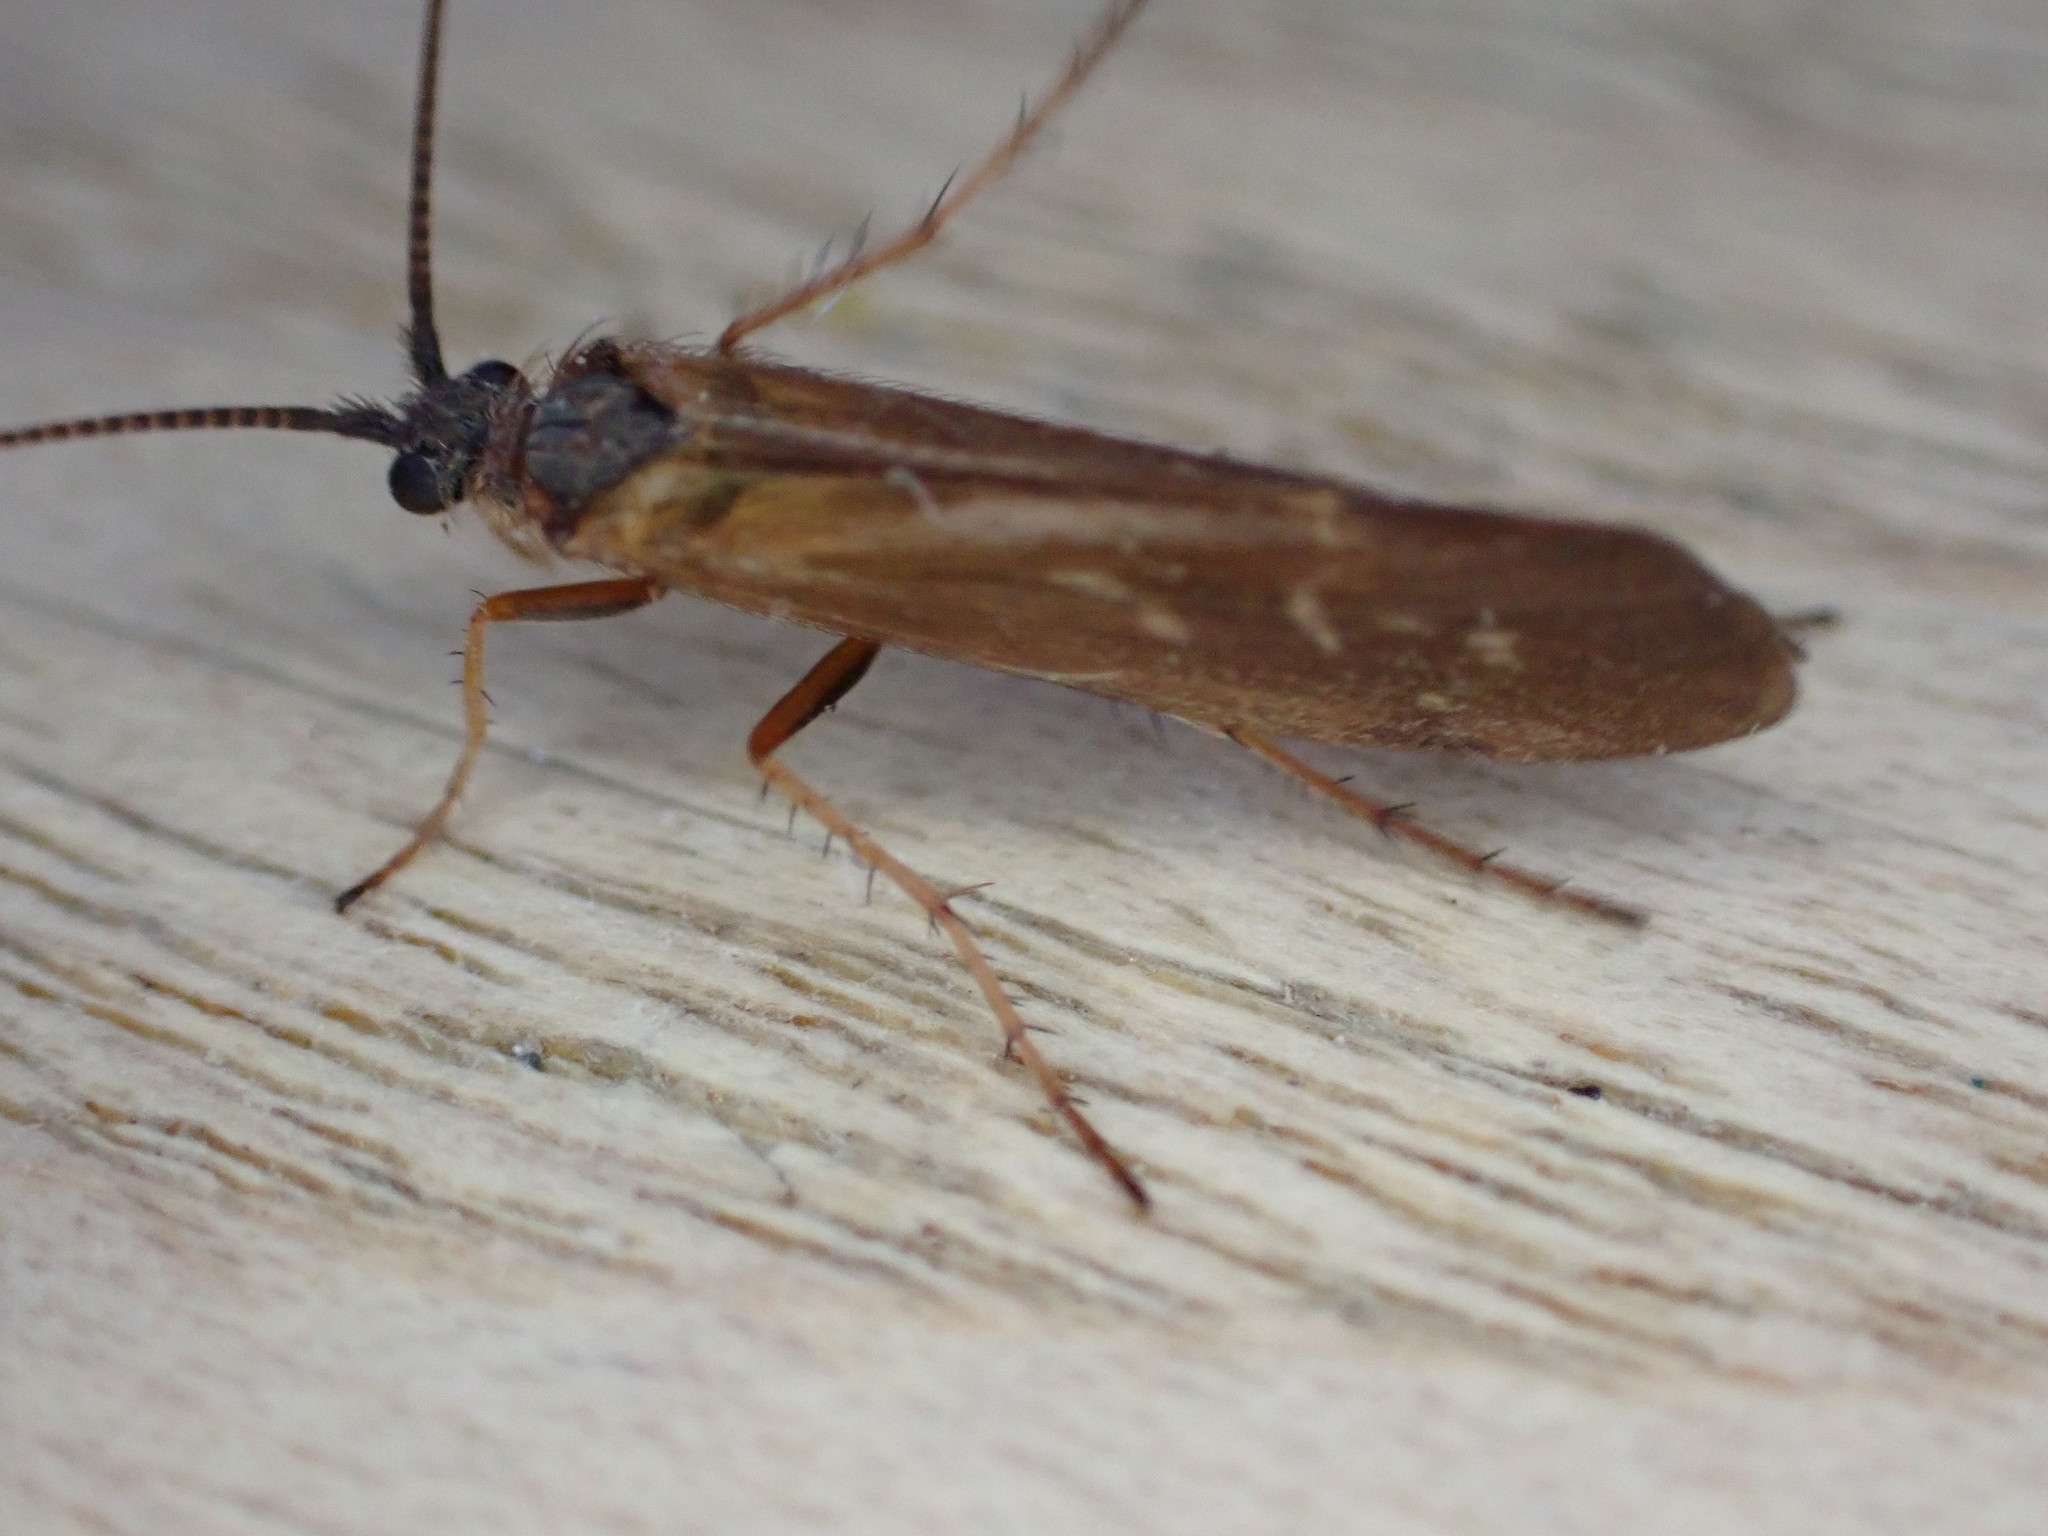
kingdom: Animalia
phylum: Arthropoda
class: Insecta
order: Trichoptera
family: Limnephilidae
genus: Limnephilus
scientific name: Limnephilus auricula
